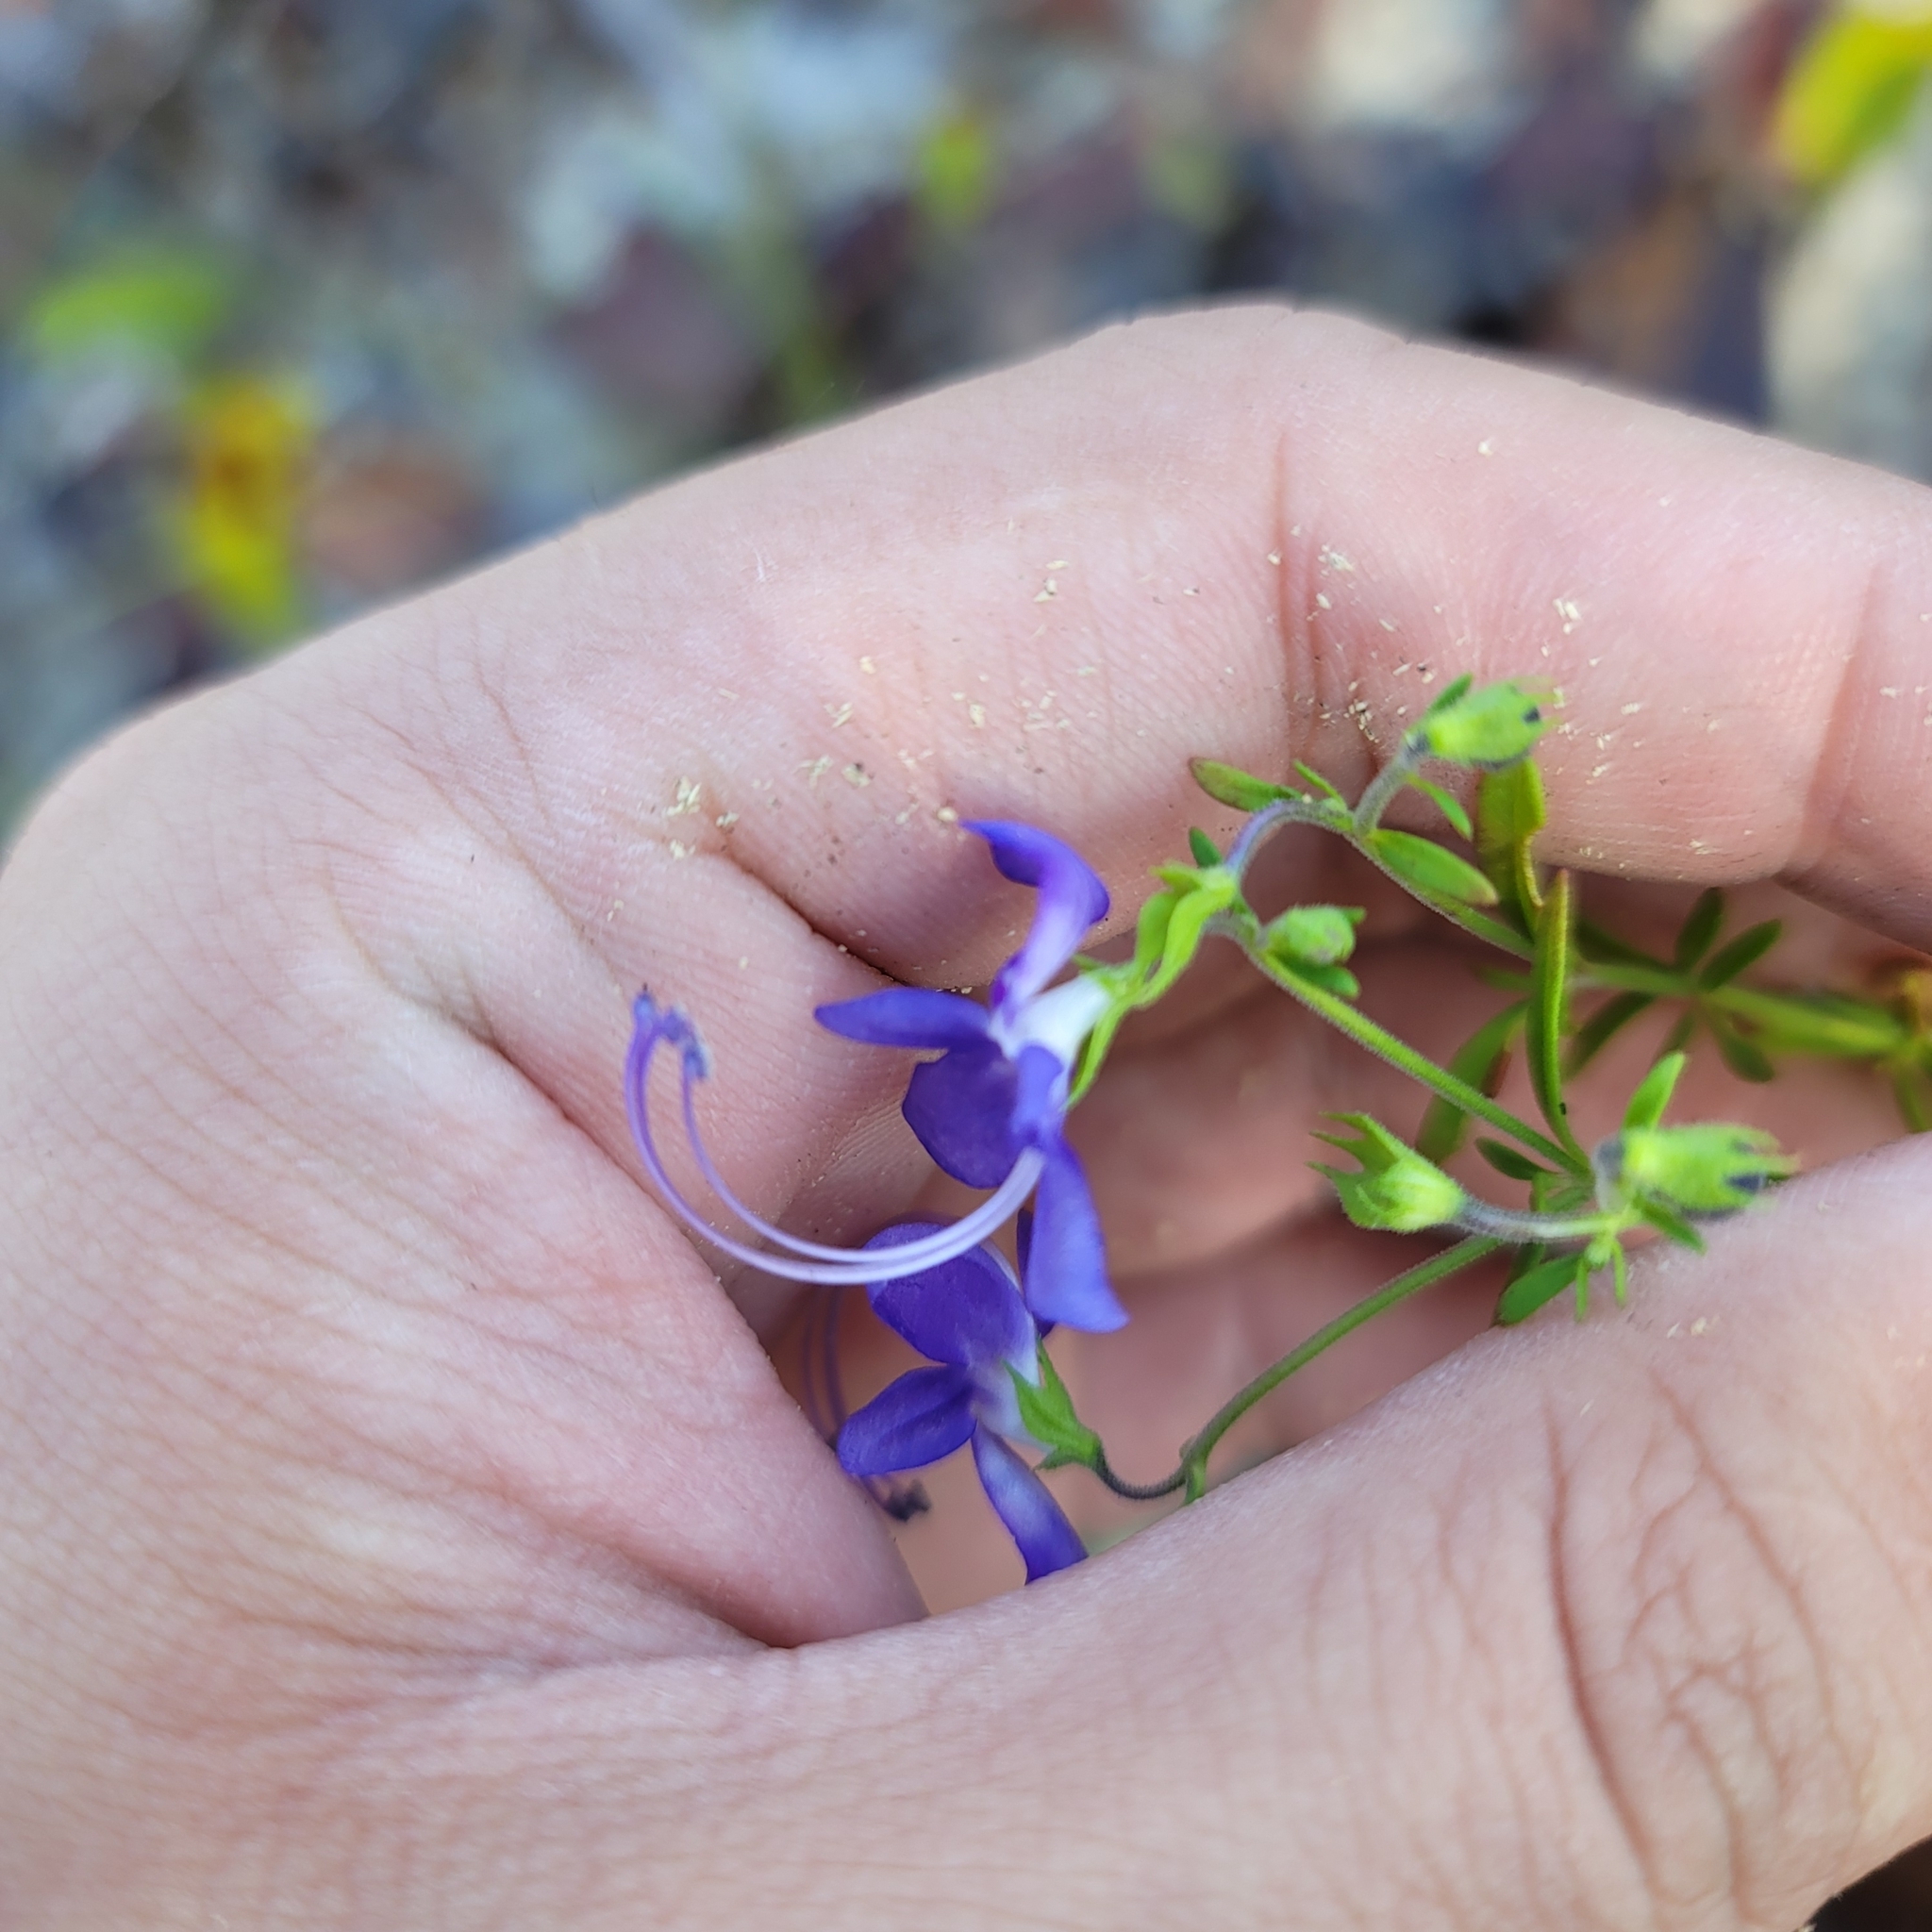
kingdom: Plantae
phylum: Tracheophyta
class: Magnoliopsida
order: Lamiales
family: Lamiaceae
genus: Trichostema
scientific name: Trichostema setaceum
